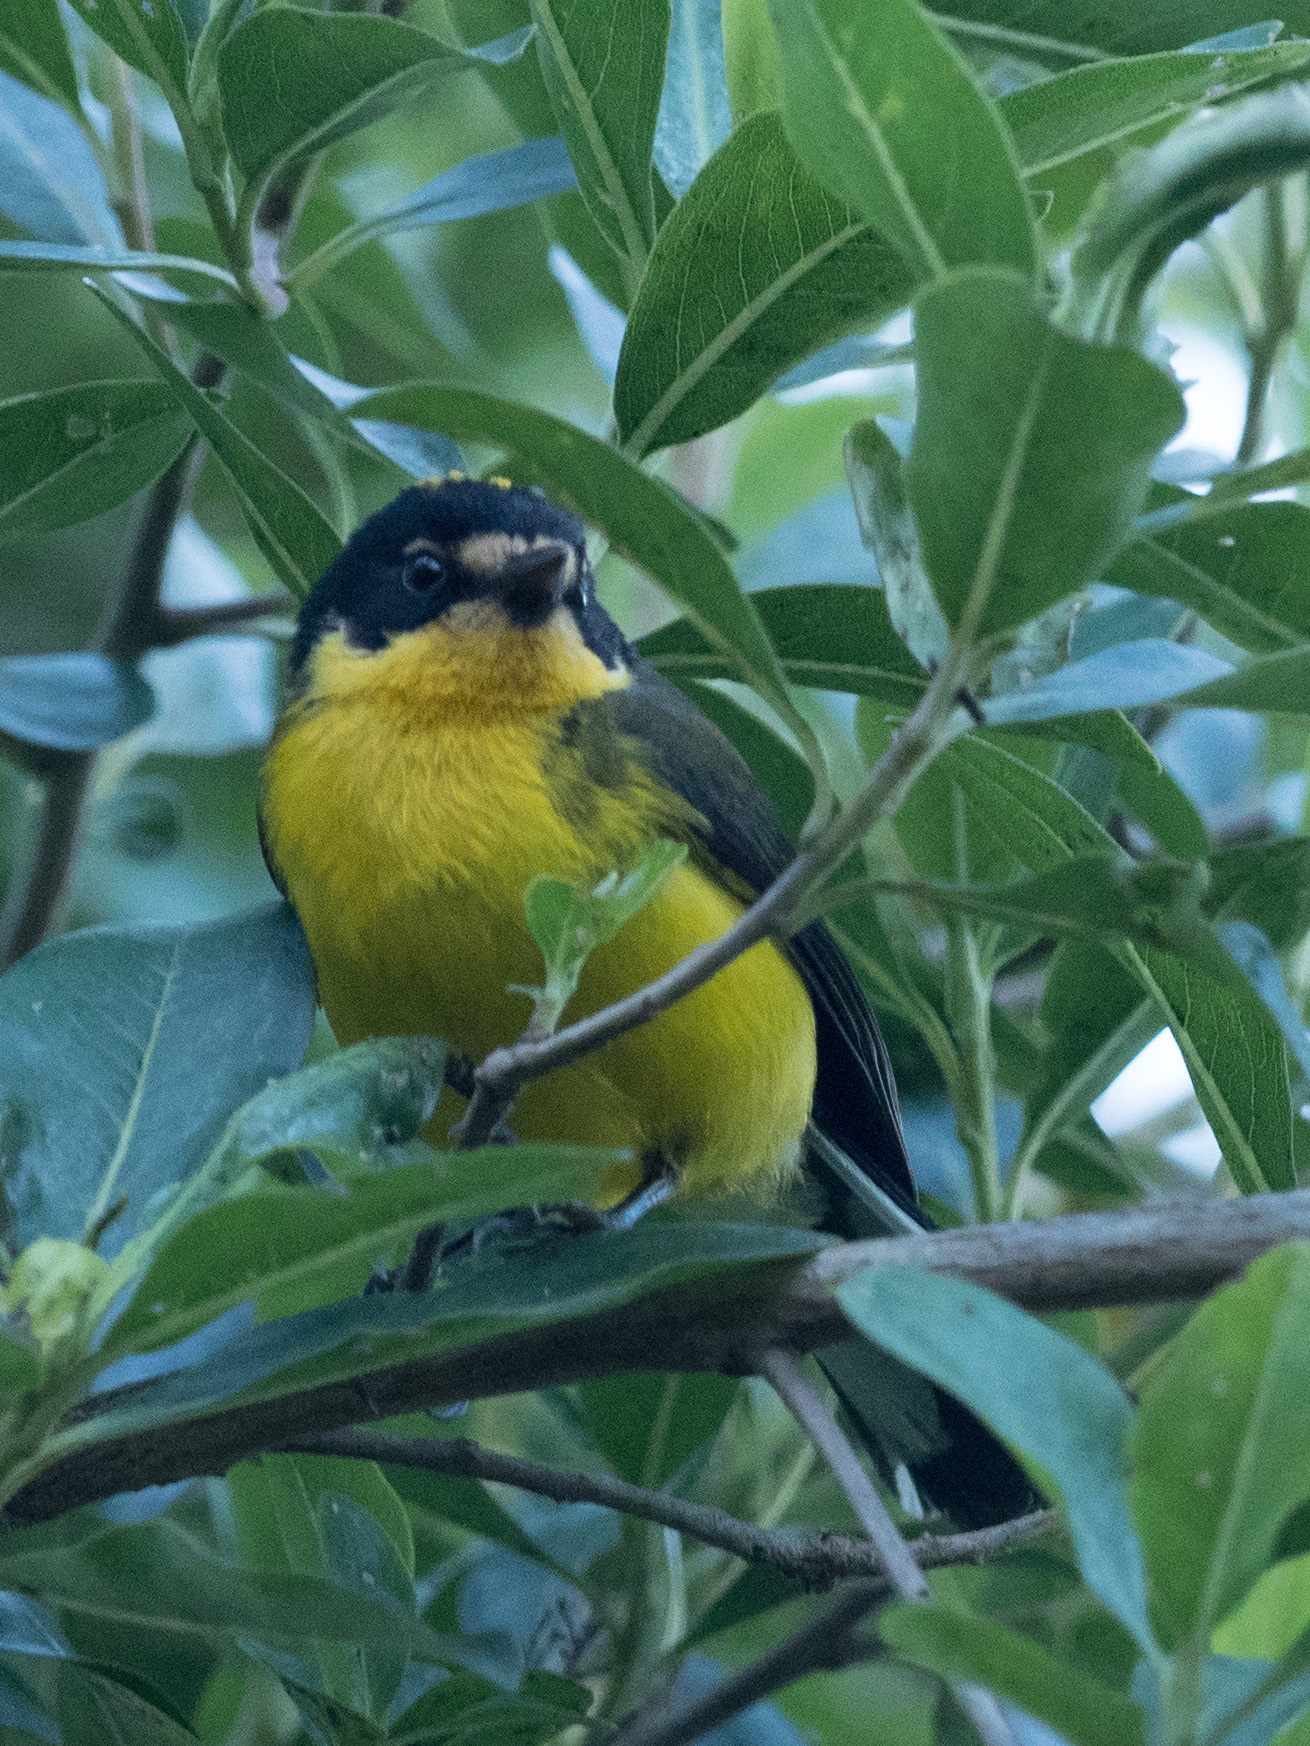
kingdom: Animalia
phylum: Chordata
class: Aves
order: Passeriformes
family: Parulidae
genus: Myioborus
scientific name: Myioborus flavivertex
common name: Yellow-crowned whitestart
